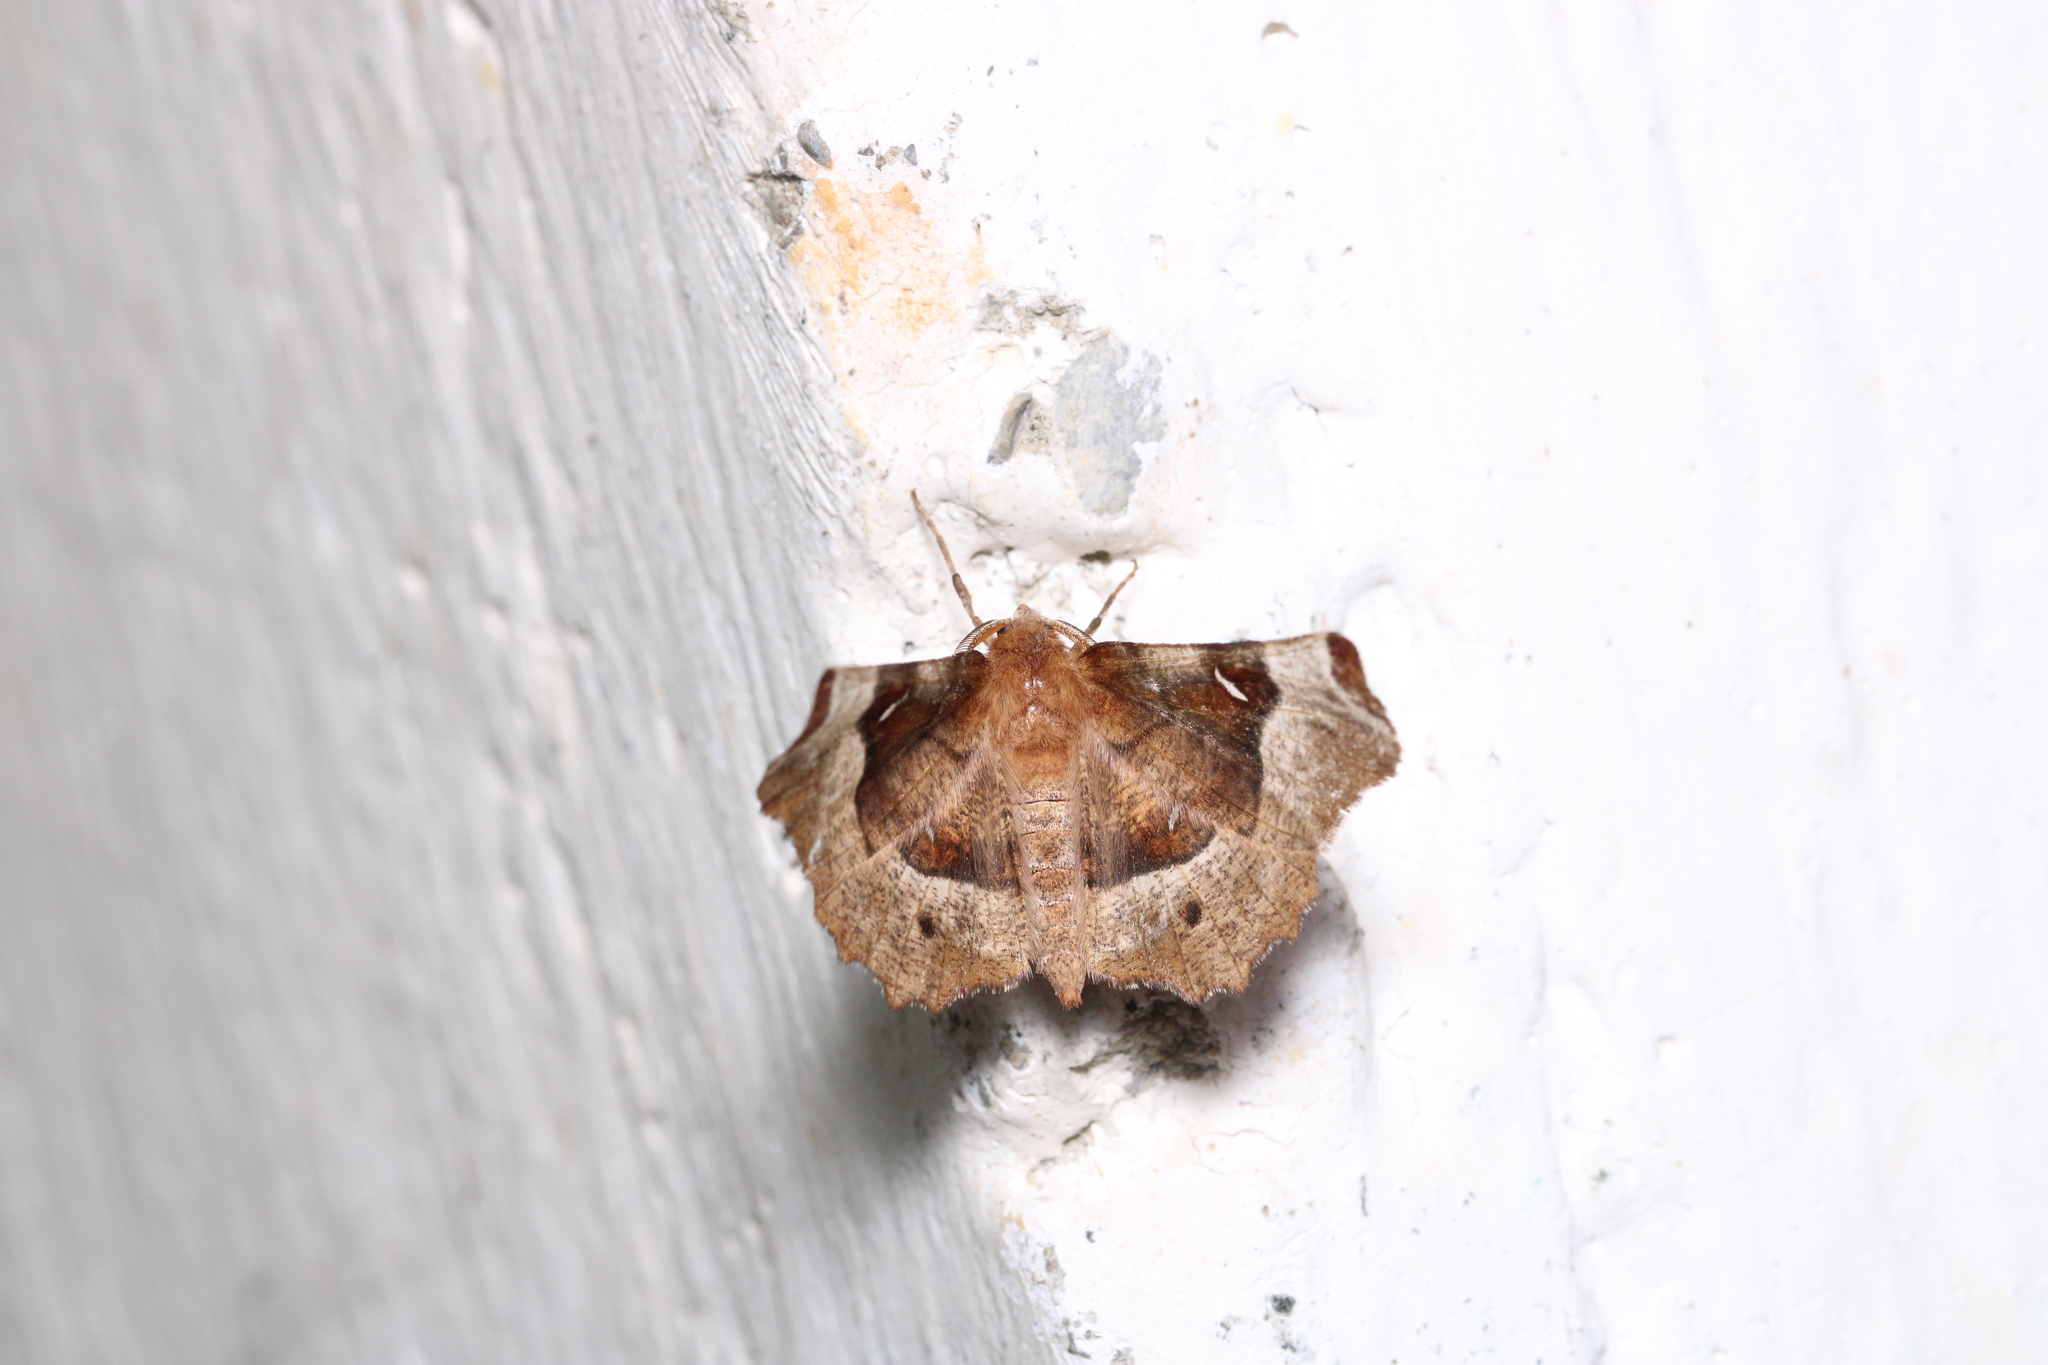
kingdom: Animalia
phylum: Arthropoda
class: Insecta
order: Lepidoptera
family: Geometridae
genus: Selenia
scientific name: Selenia tetralunaria
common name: Purple thorn
